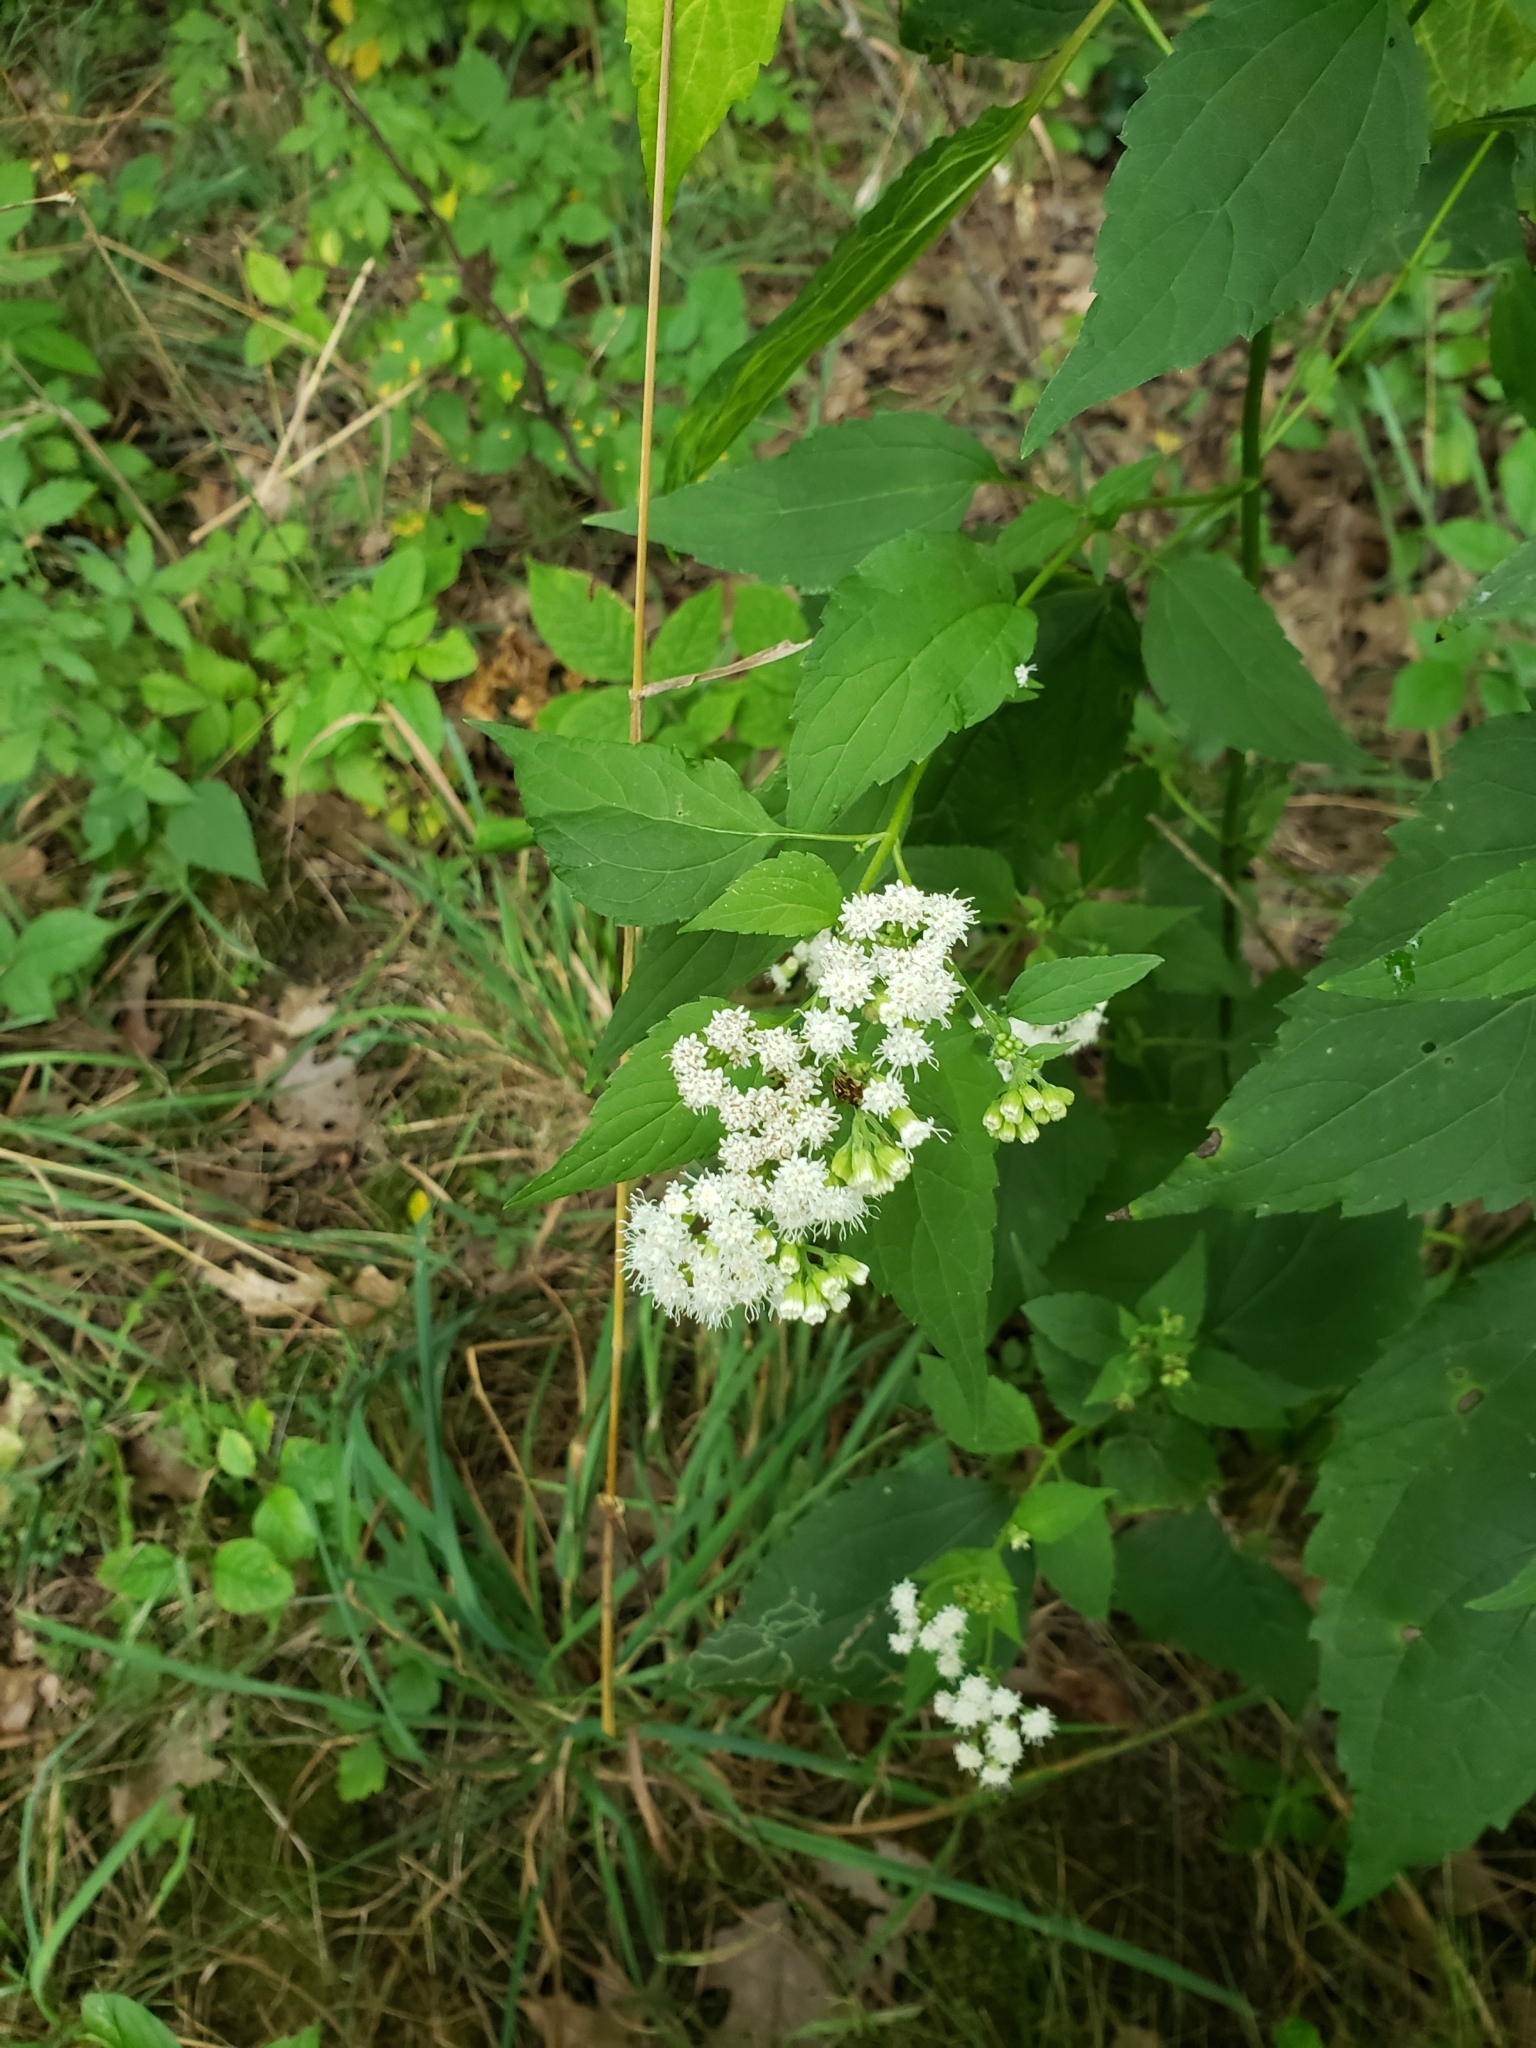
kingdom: Plantae
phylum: Tracheophyta
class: Magnoliopsida
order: Asterales
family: Asteraceae
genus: Ageratina
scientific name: Ageratina altissima
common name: White snakeroot
